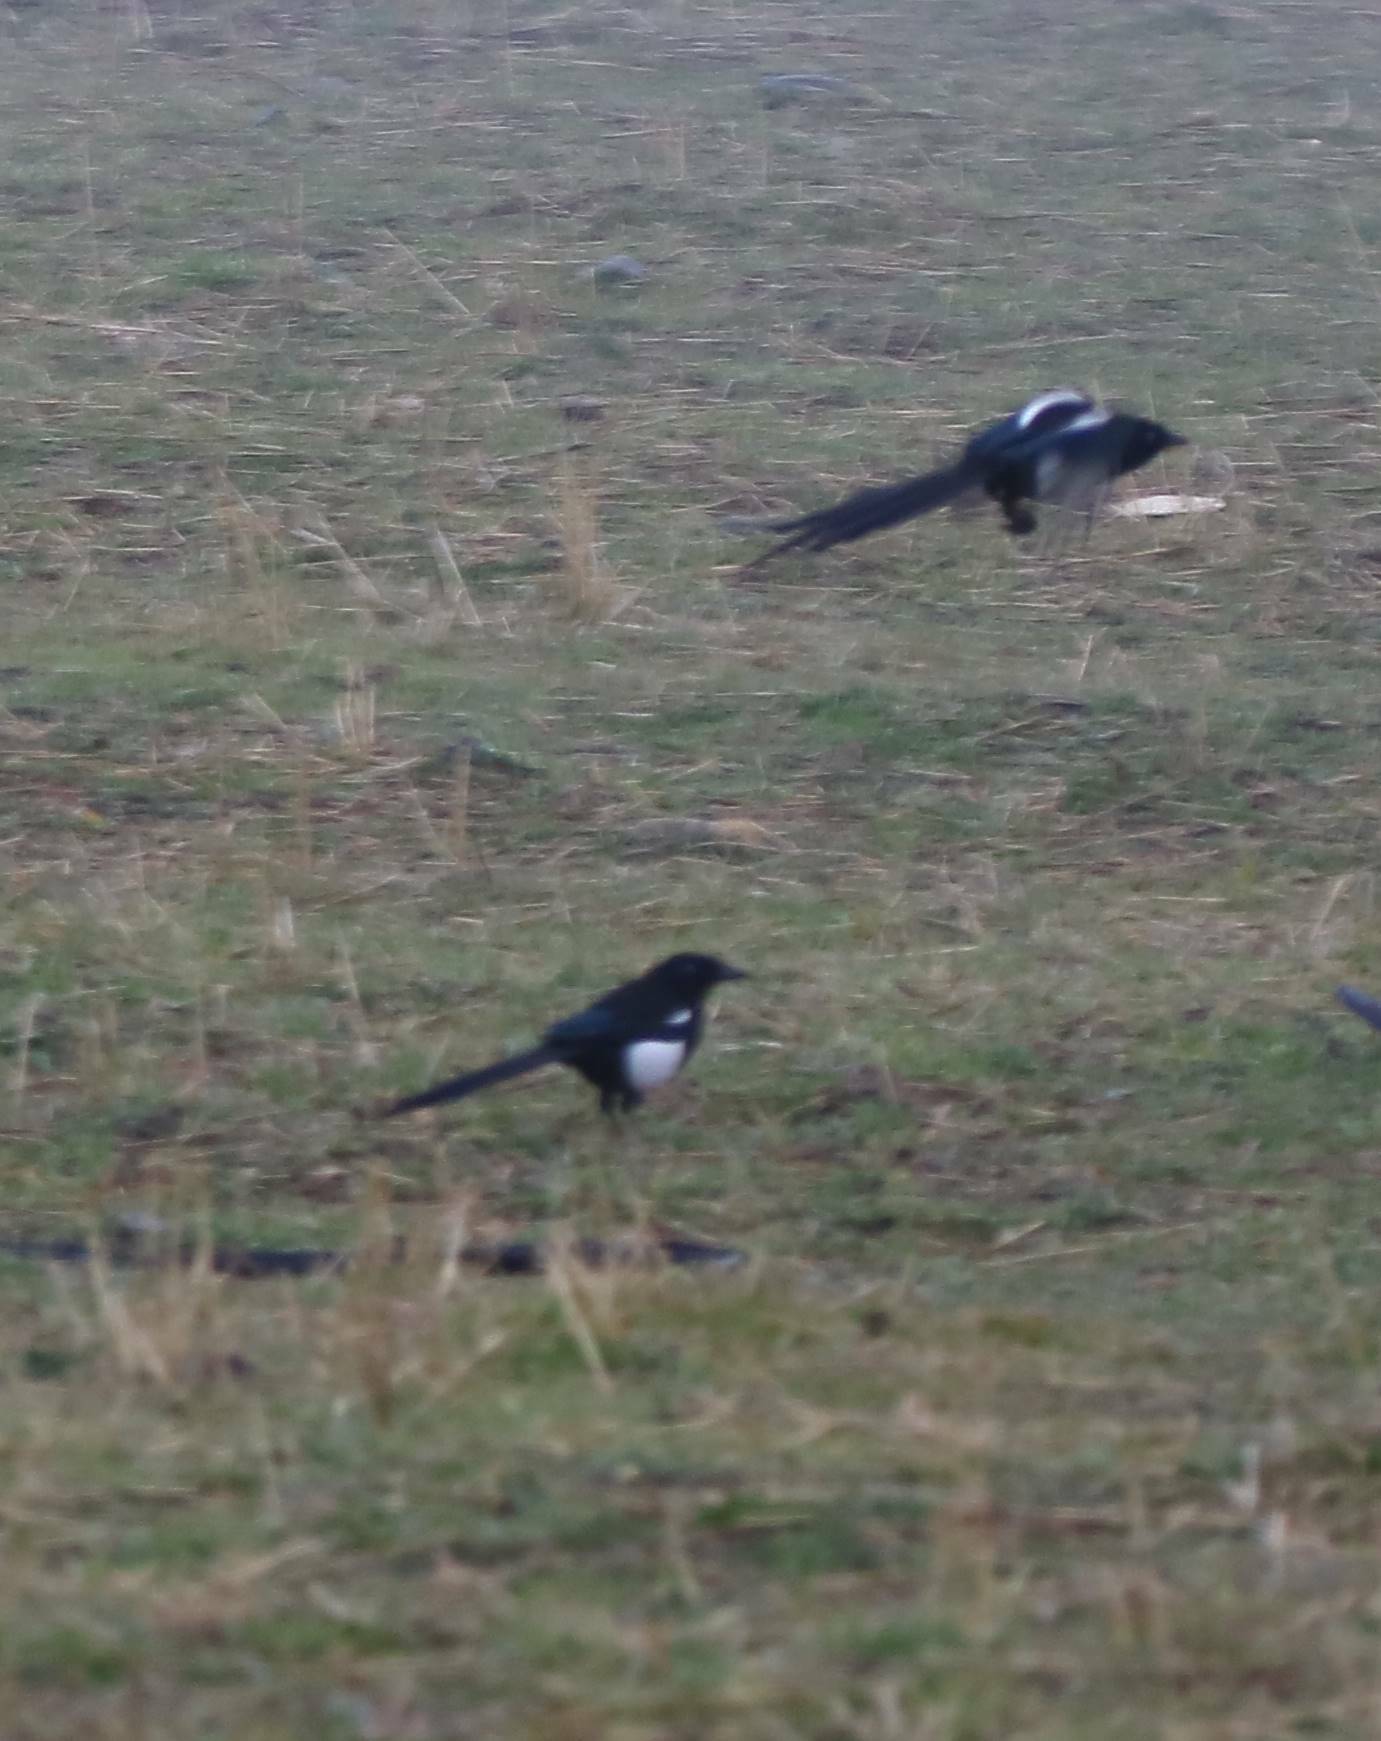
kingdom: Animalia
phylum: Chordata
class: Aves
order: Passeriformes
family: Corvidae
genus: Pica
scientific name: Pica mauritanica
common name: Maghreb magpie
